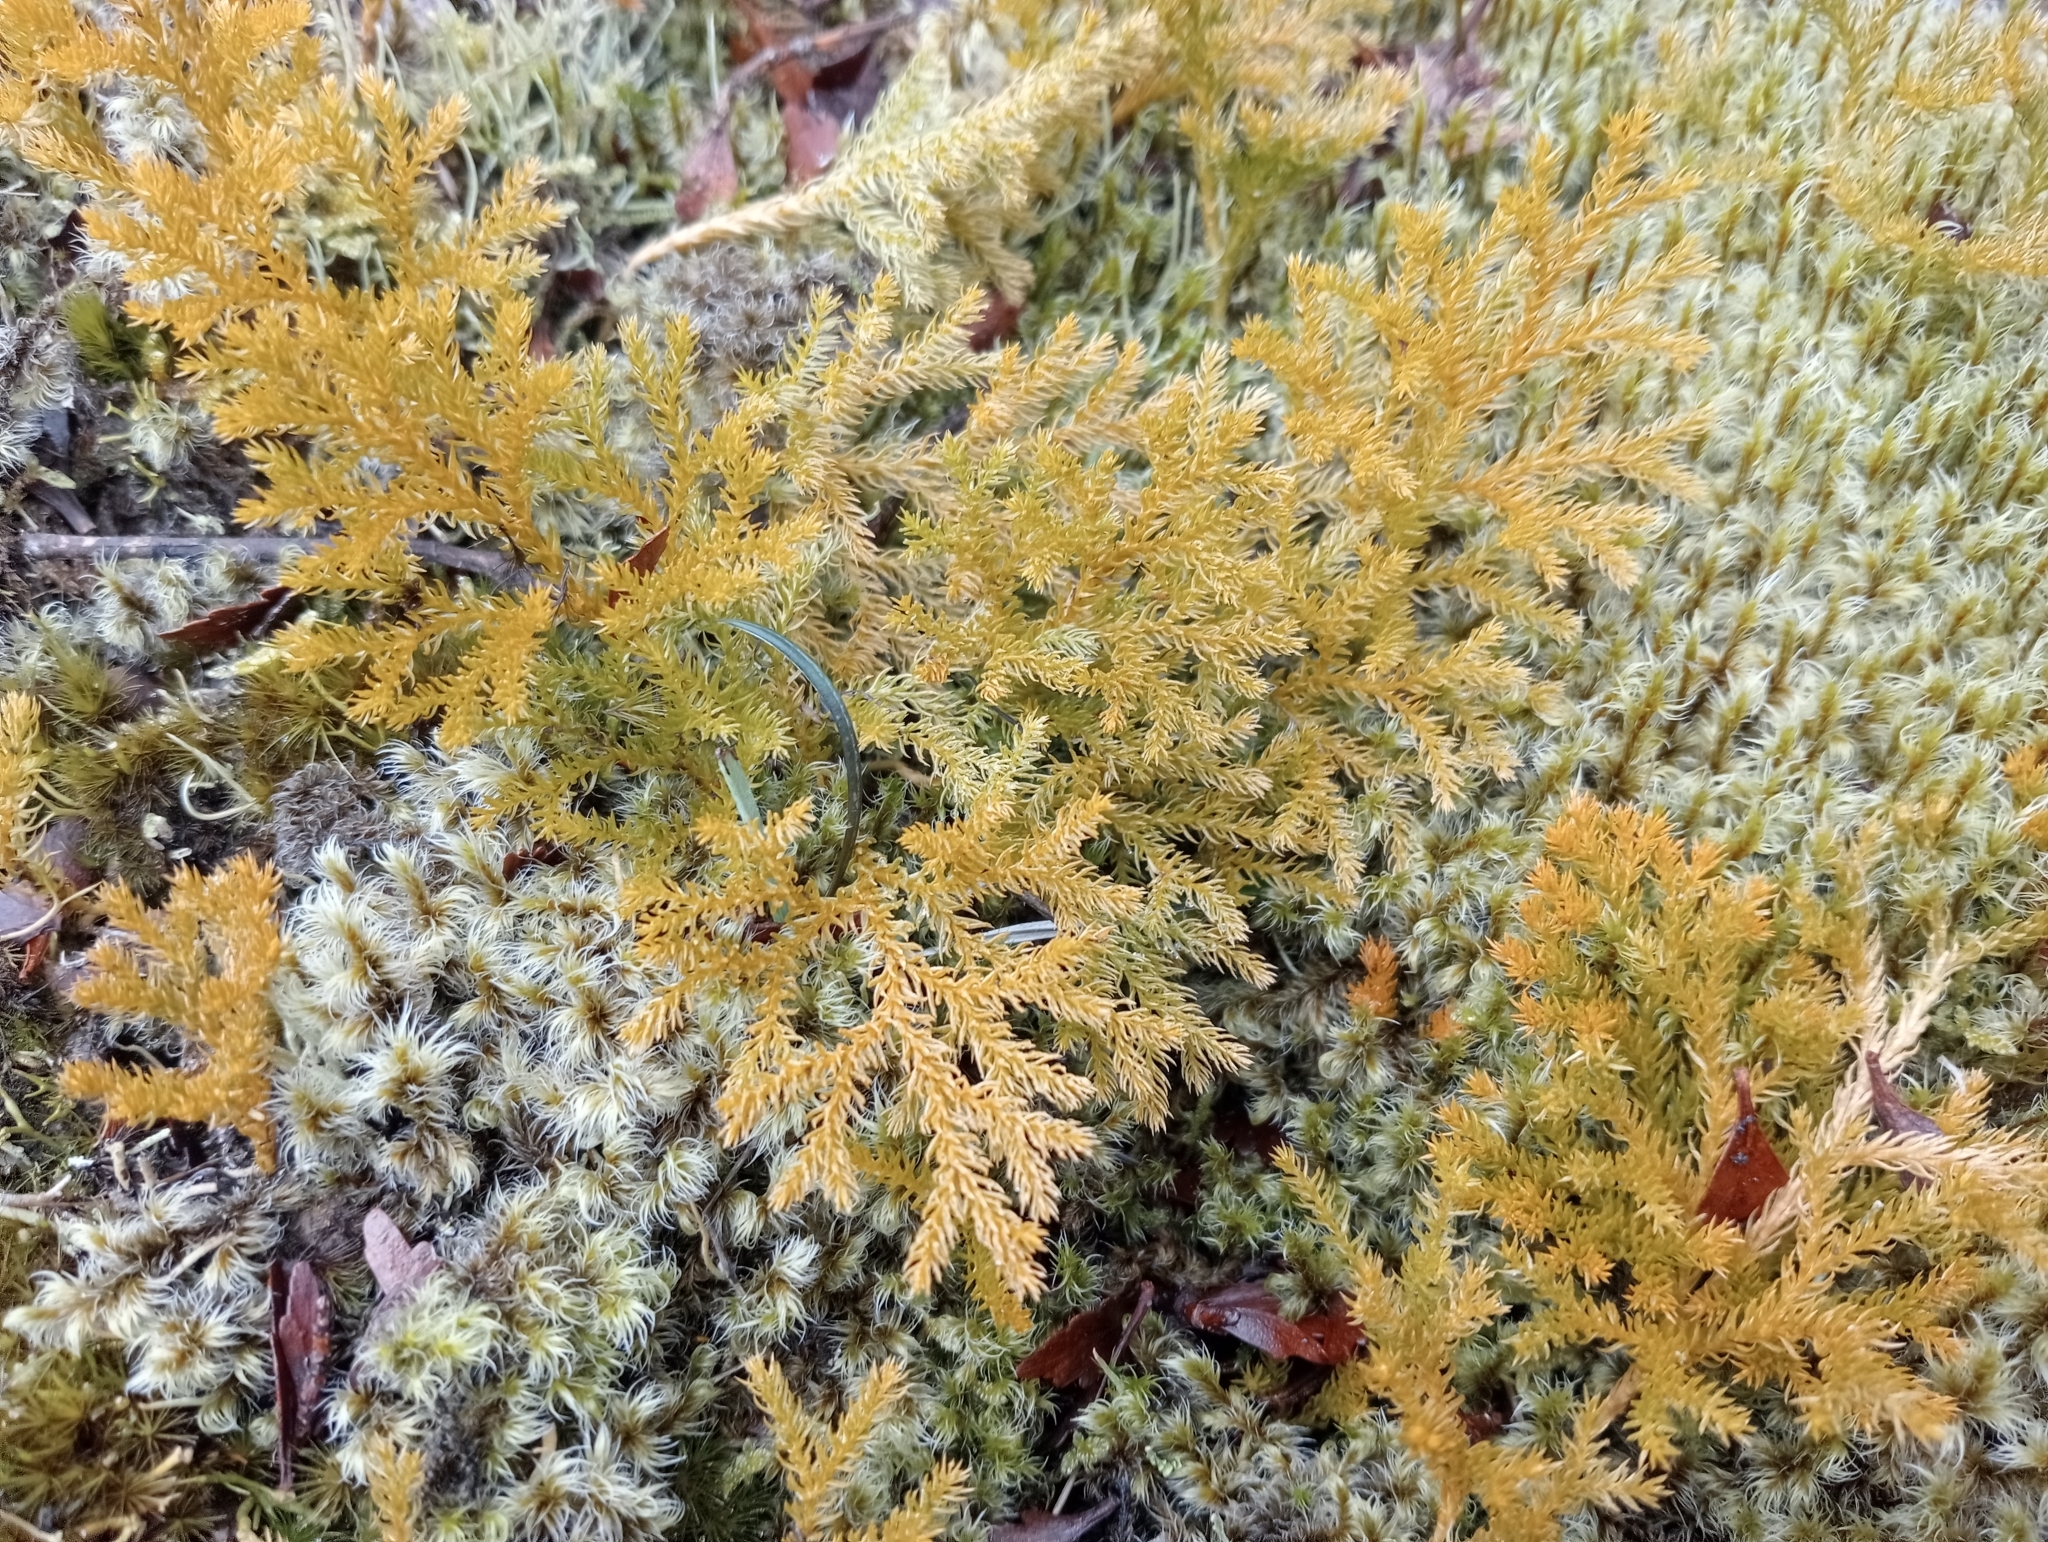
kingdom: Plantae
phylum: Tracheophyta
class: Lycopodiopsida
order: Lycopodiales
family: Lycopodiaceae
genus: Austrolycopodium
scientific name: Austrolycopodium fastigiatum
